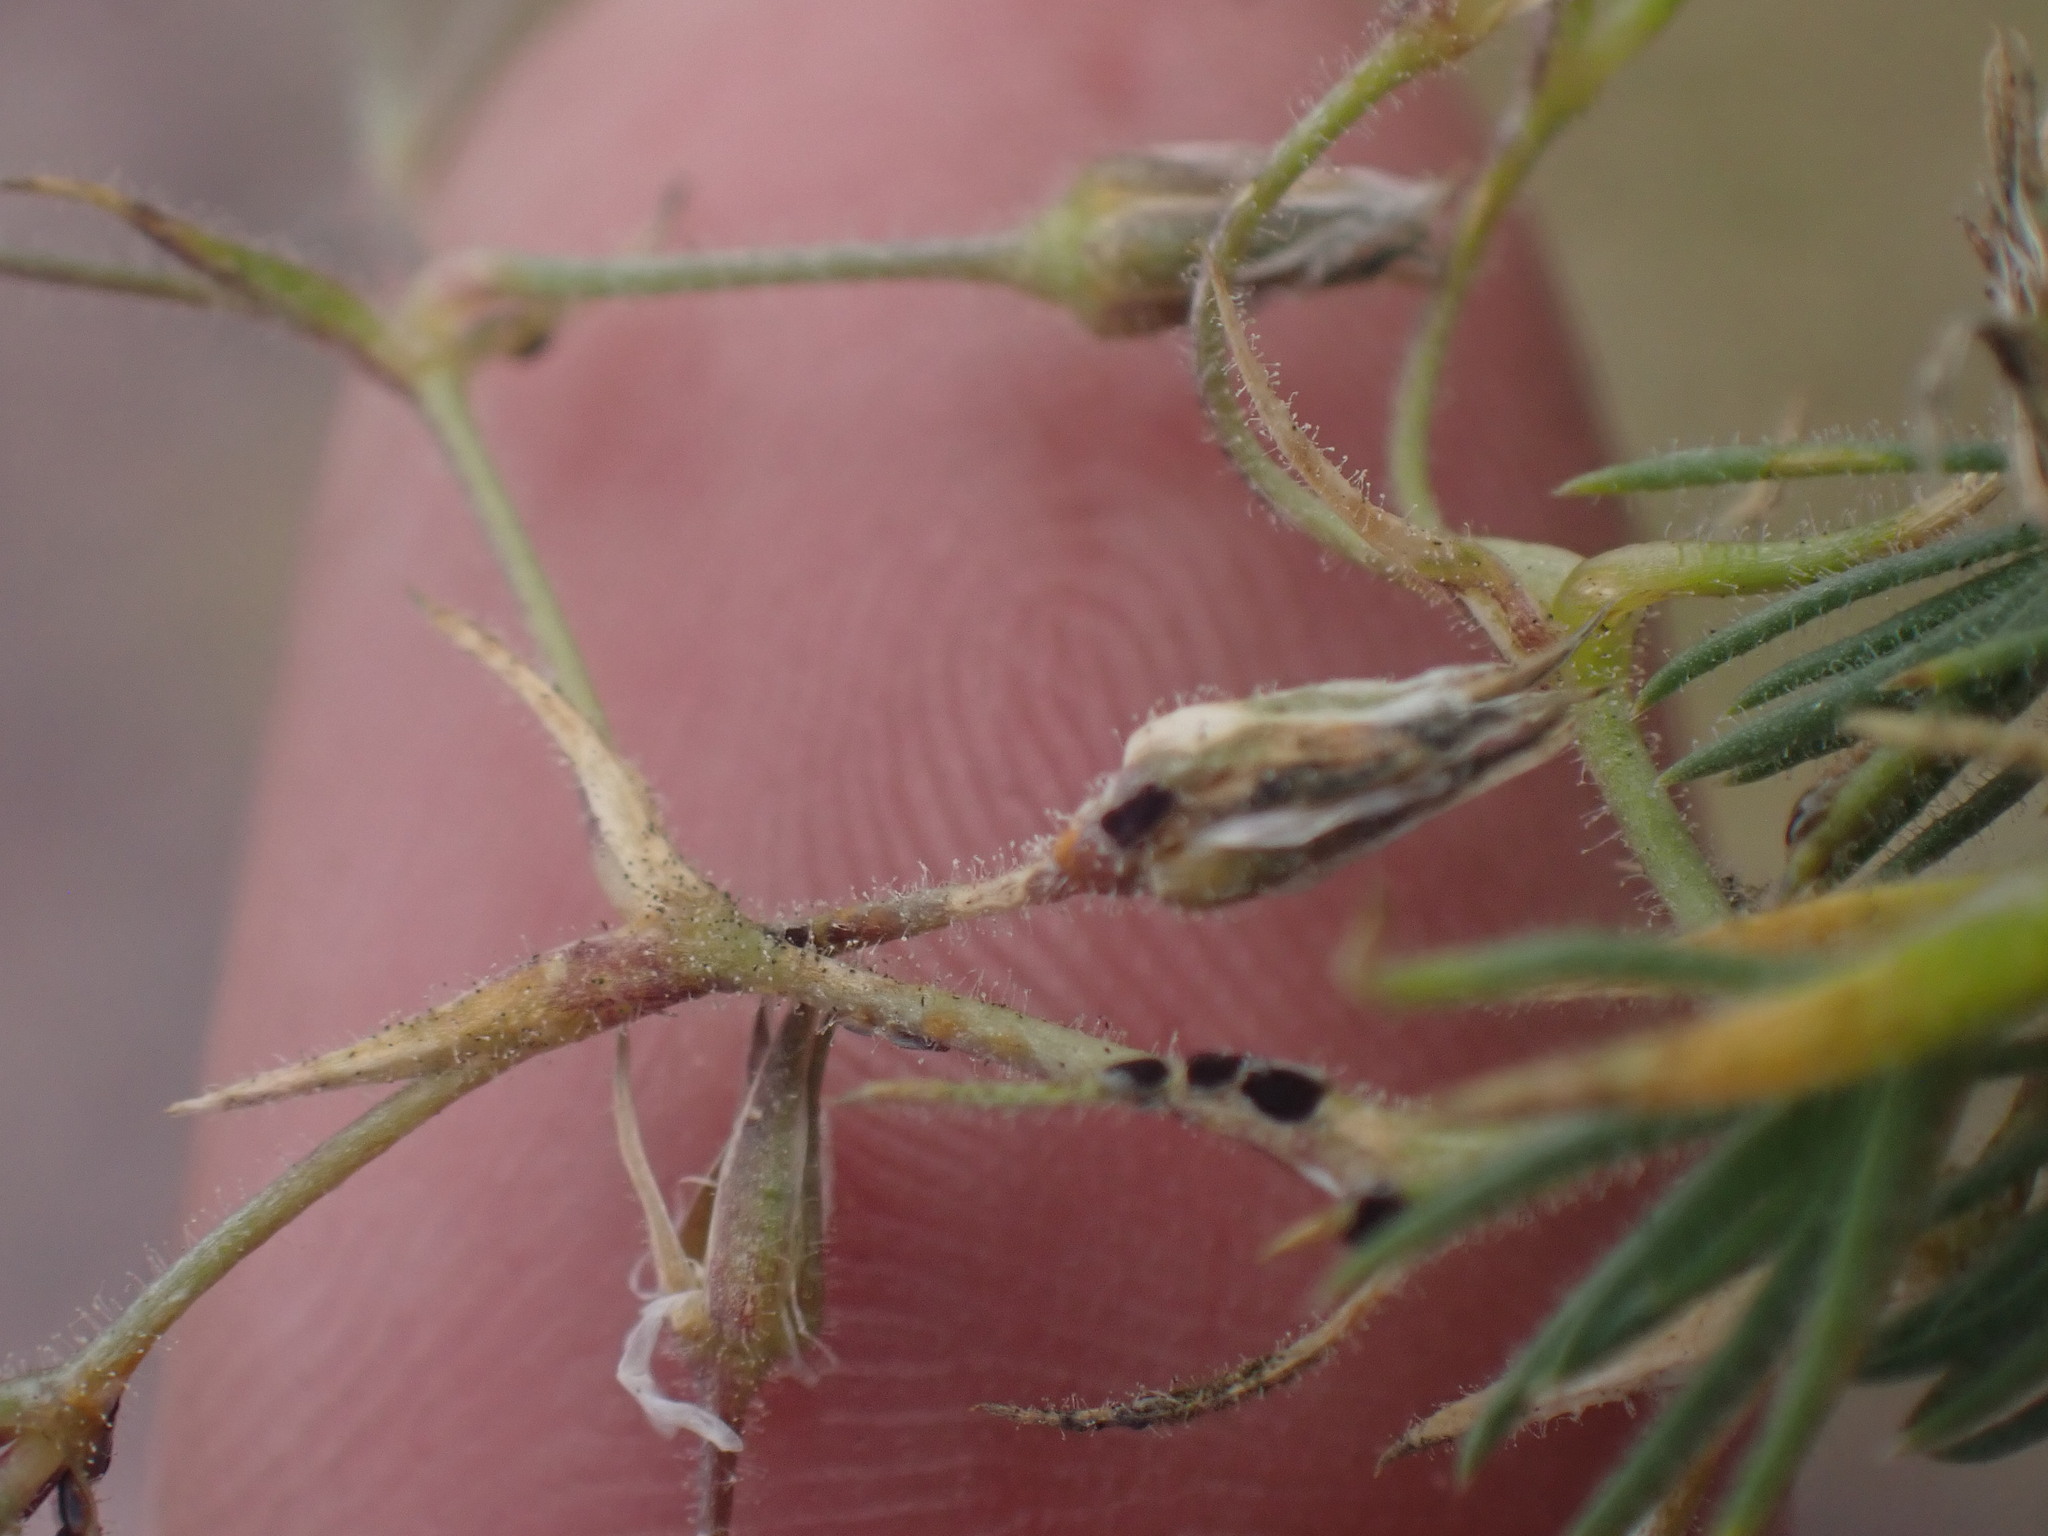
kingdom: Plantae
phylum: Tracheophyta
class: Magnoliopsida
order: Caryophyllales
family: Caryophyllaceae
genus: Sabulina
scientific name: Sabulina nuttallii
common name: Nuttall's stitchwort
